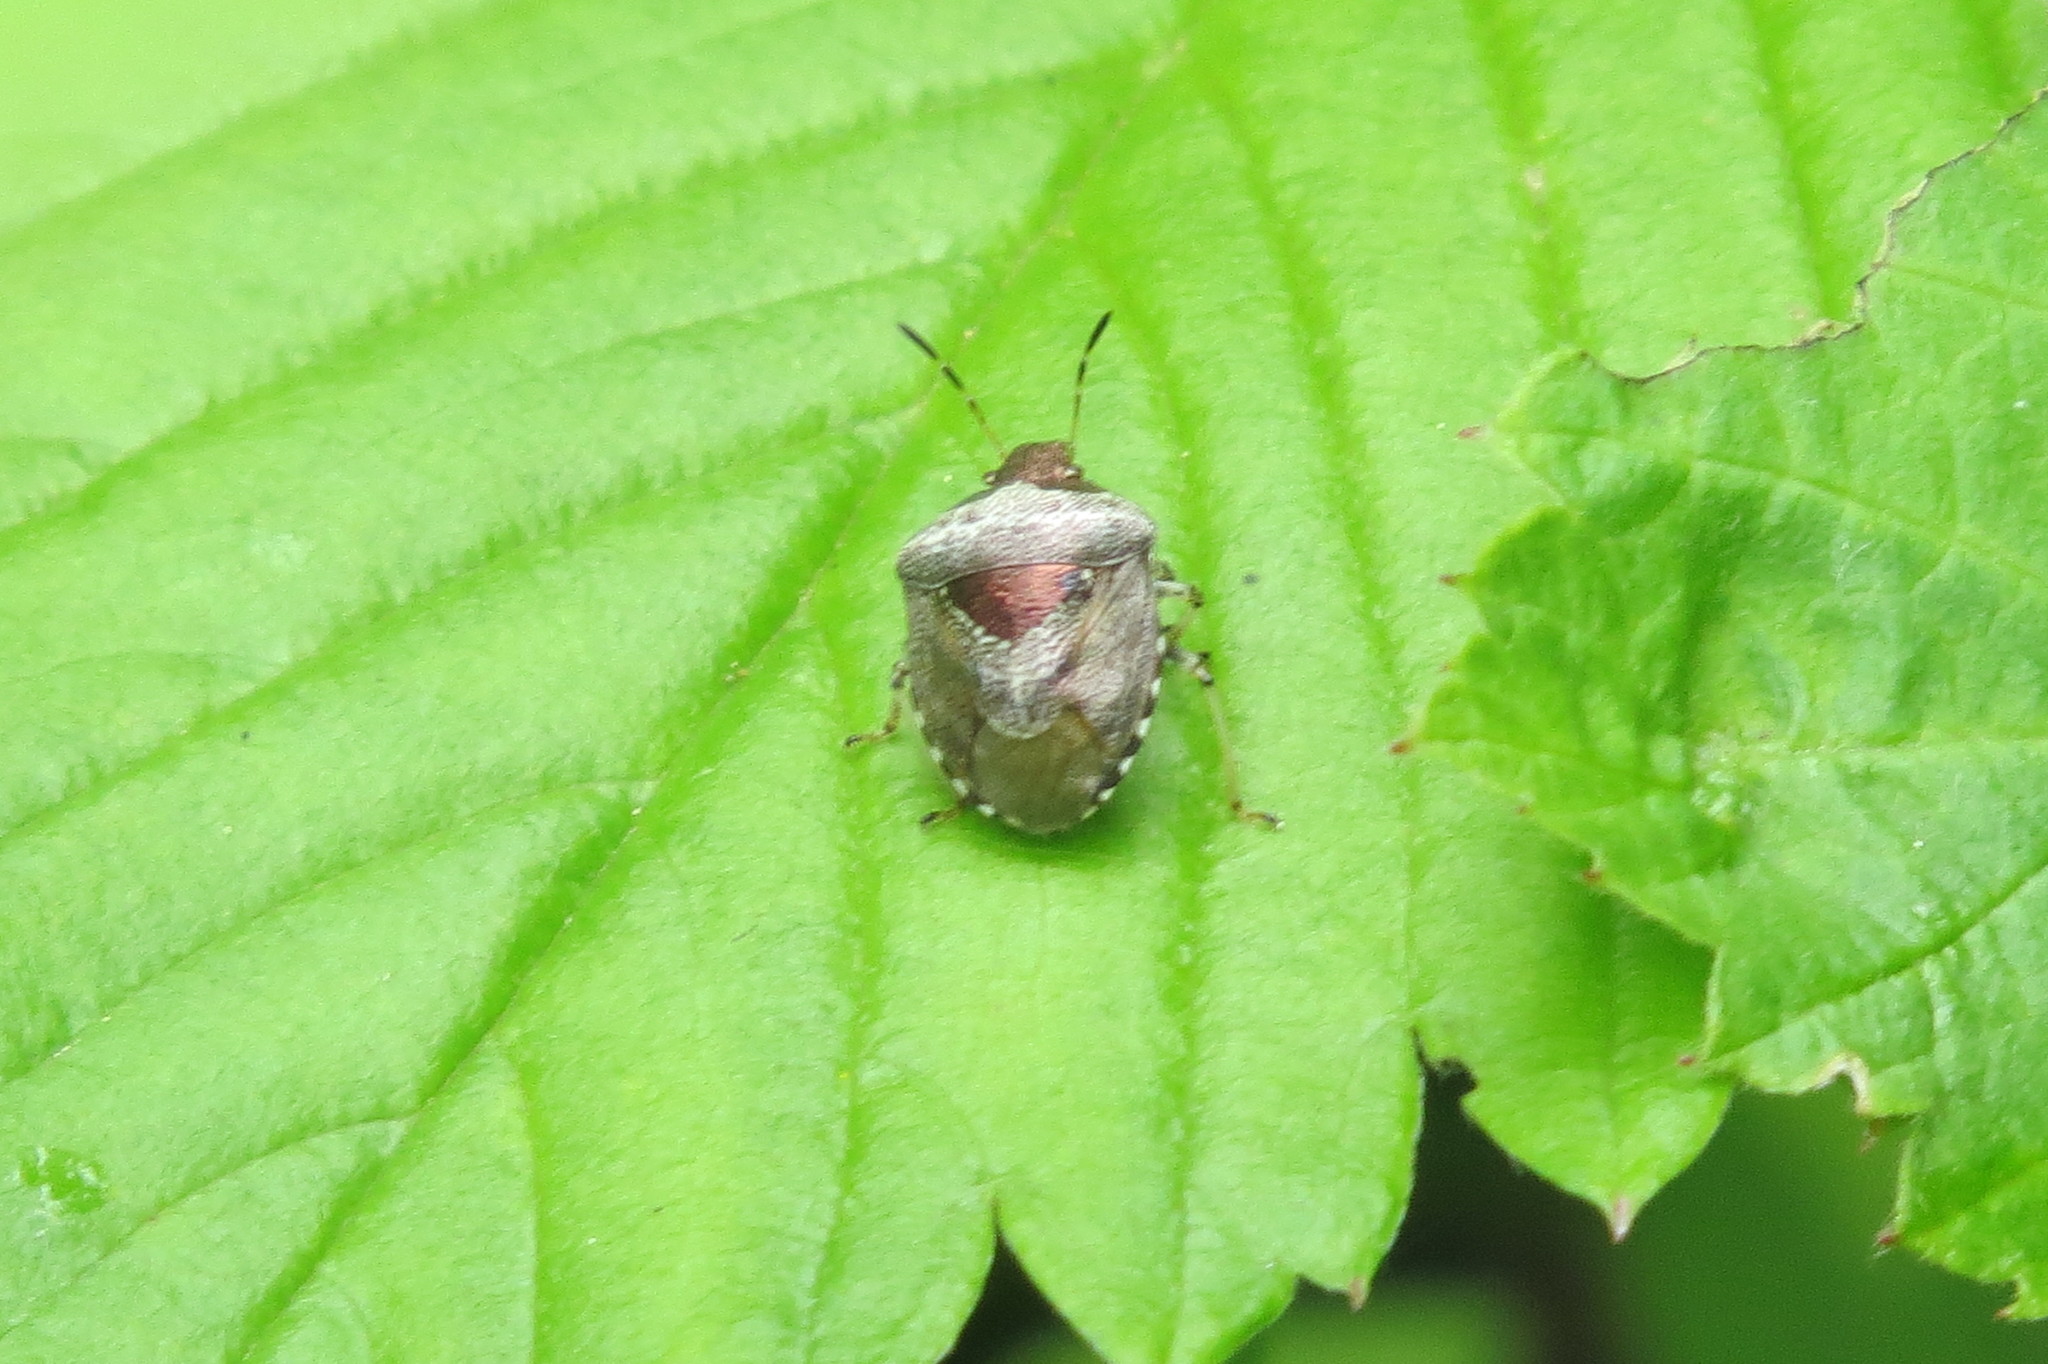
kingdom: Animalia
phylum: Arthropoda
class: Insecta
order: Hemiptera
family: Pentatomidae
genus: Eysarcoris
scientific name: Eysarcoris venustissimus
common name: Woundwort shieldbug
